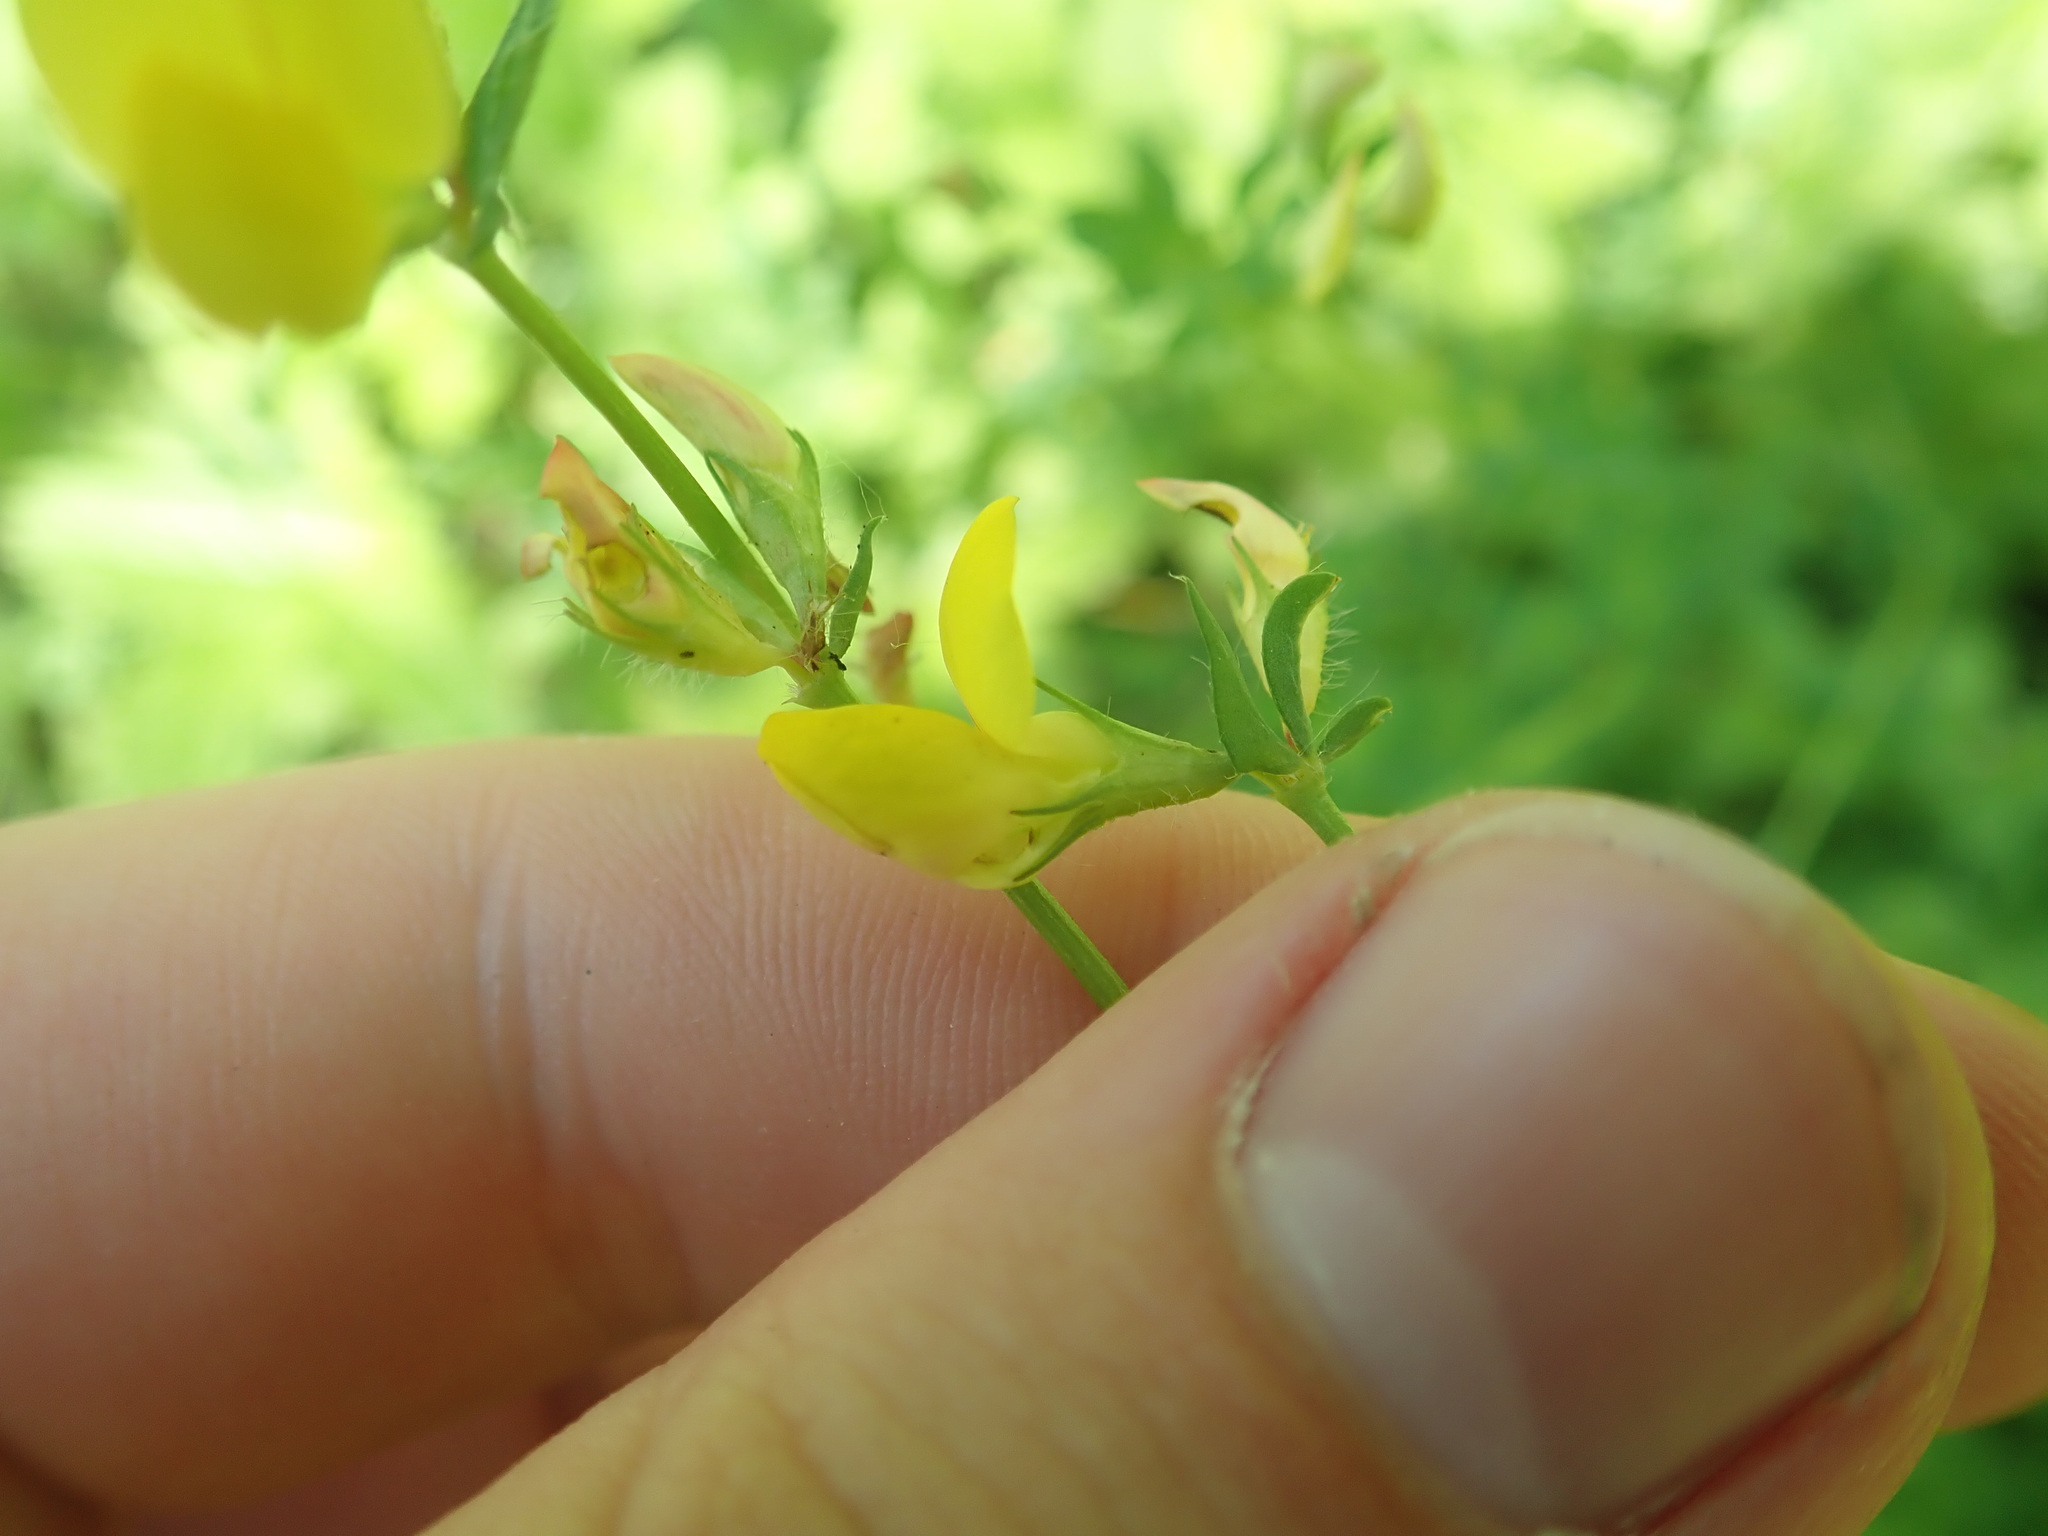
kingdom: Plantae
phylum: Tracheophyta
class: Magnoliopsida
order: Fabales
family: Fabaceae
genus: Lotus
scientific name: Lotus corniculatus
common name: Common bird's-foot-trefoil
